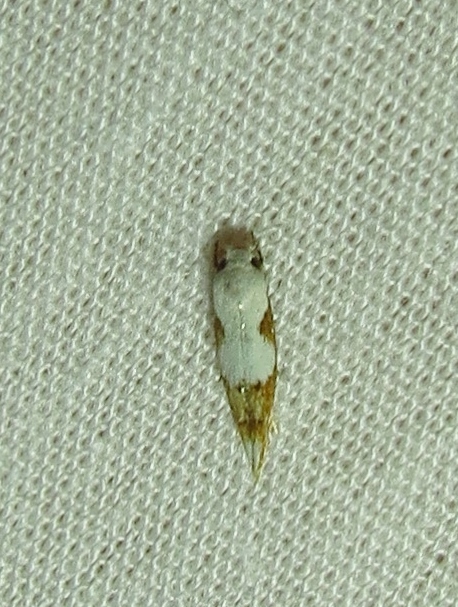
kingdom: Animalia
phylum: Arthropoda
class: Insecta
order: Lepidoptera
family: Momphidae
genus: Mompha
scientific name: Mompha circumscriptella
